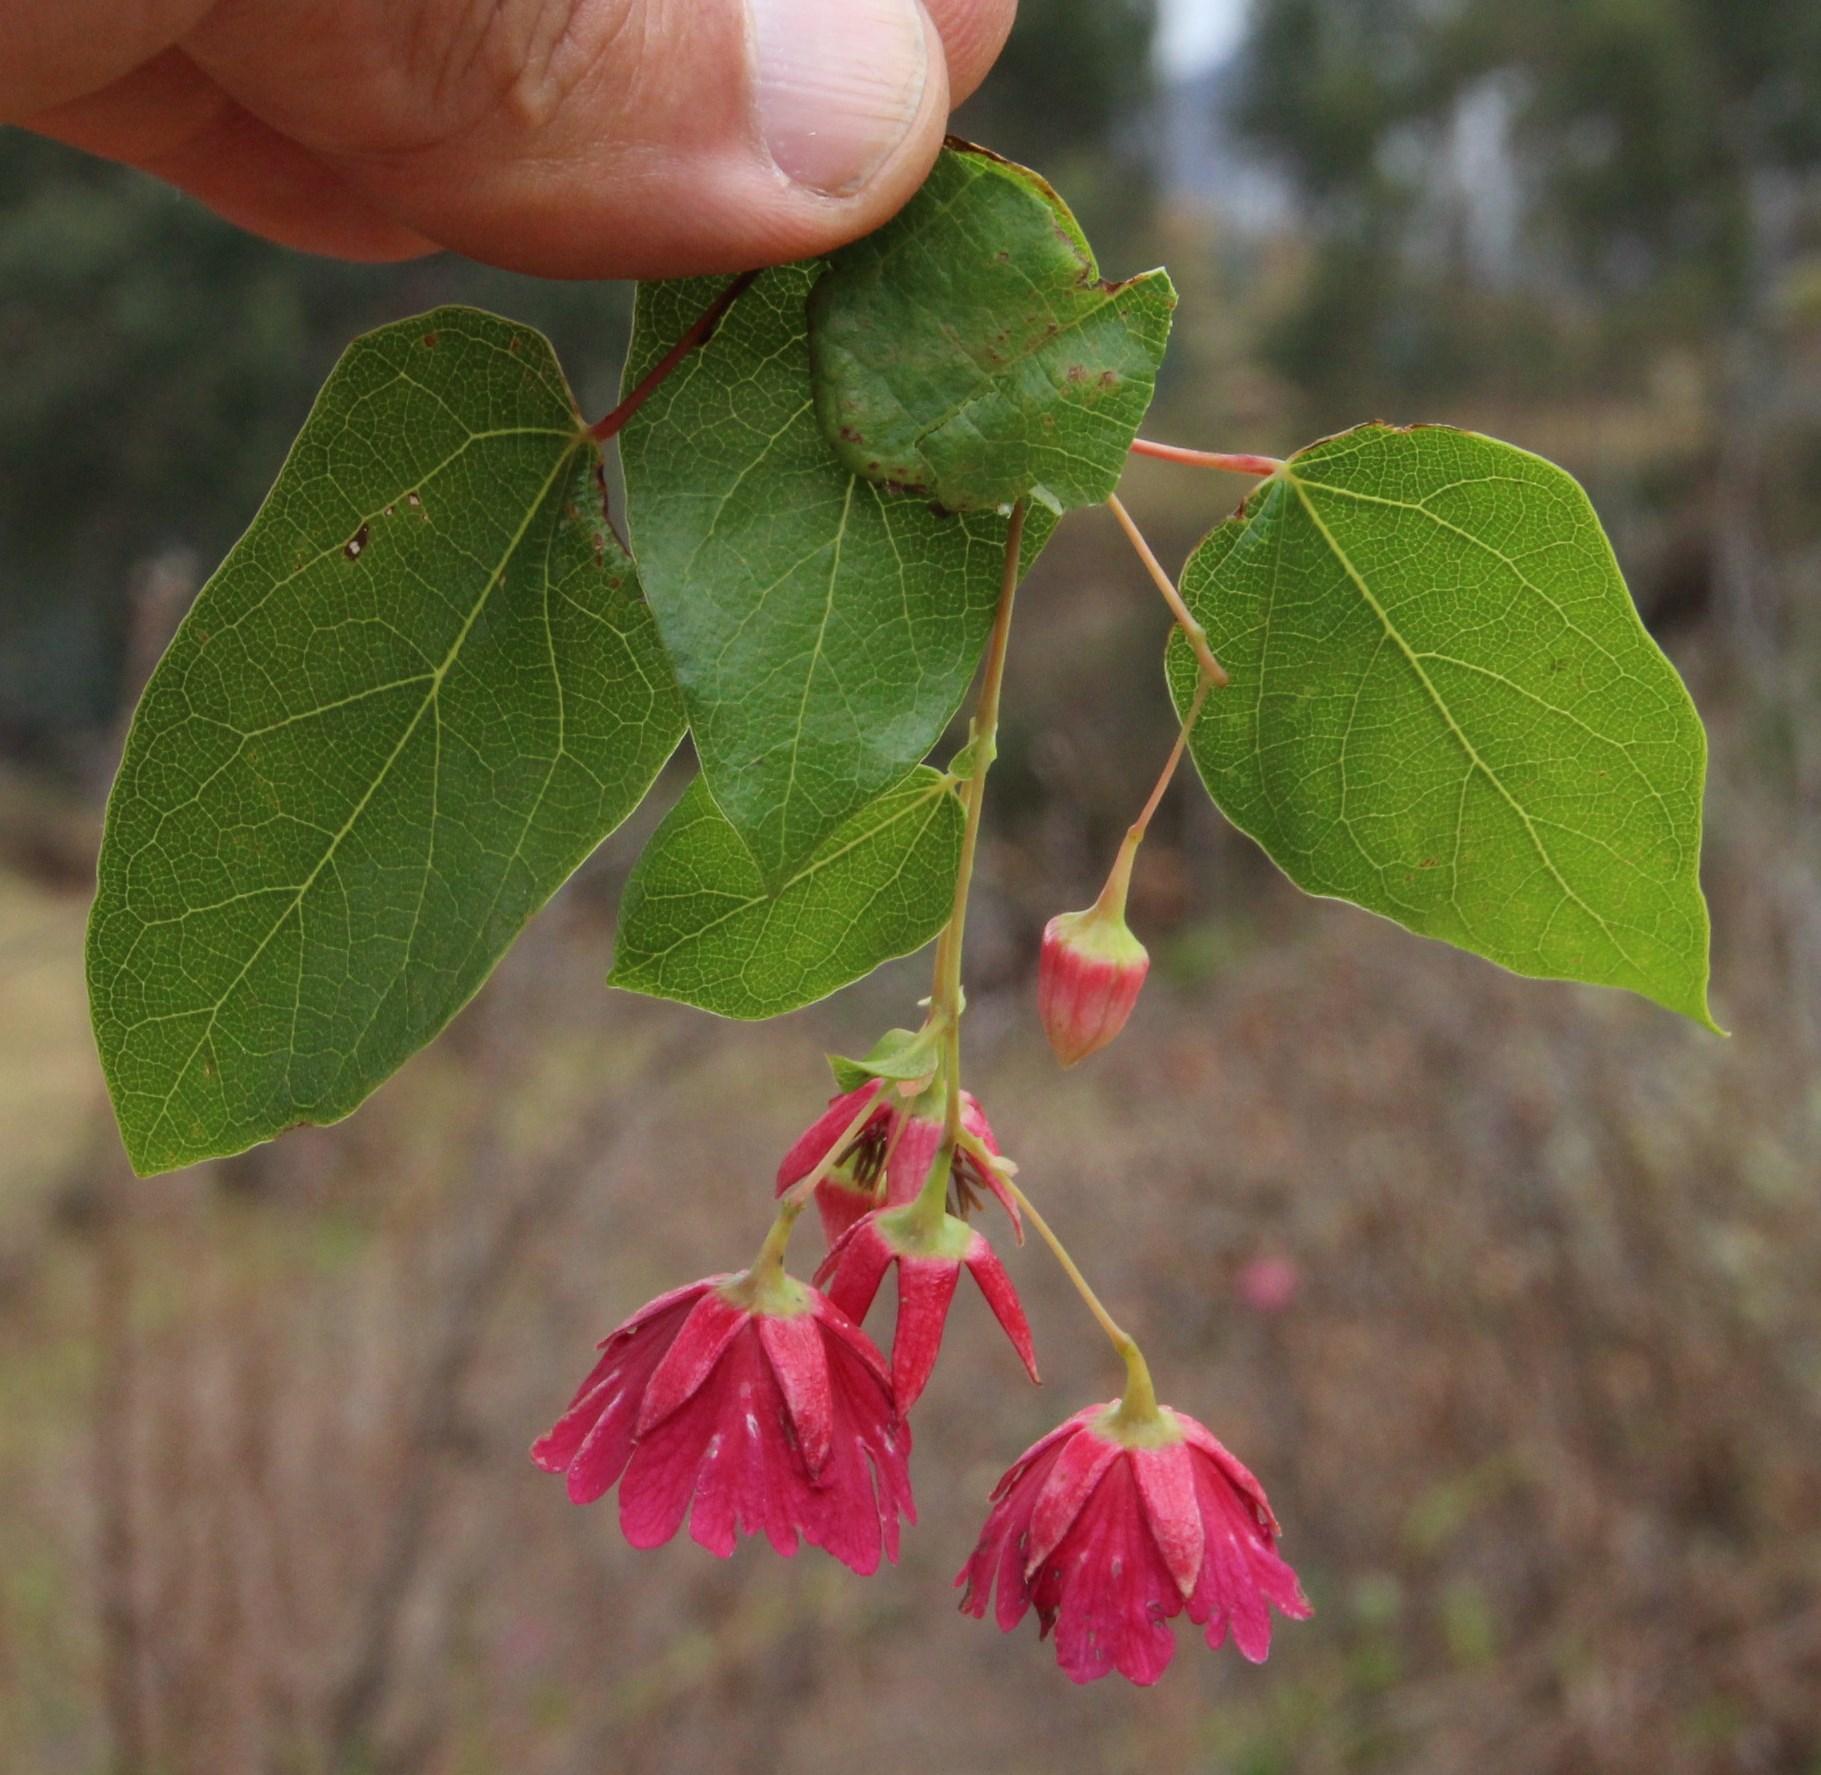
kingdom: Plantae
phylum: Tracheophyta
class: Magnoliopsida
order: Oxalidales
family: Elaeocarpaceae
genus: Vallea
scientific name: Vallea stipularis
